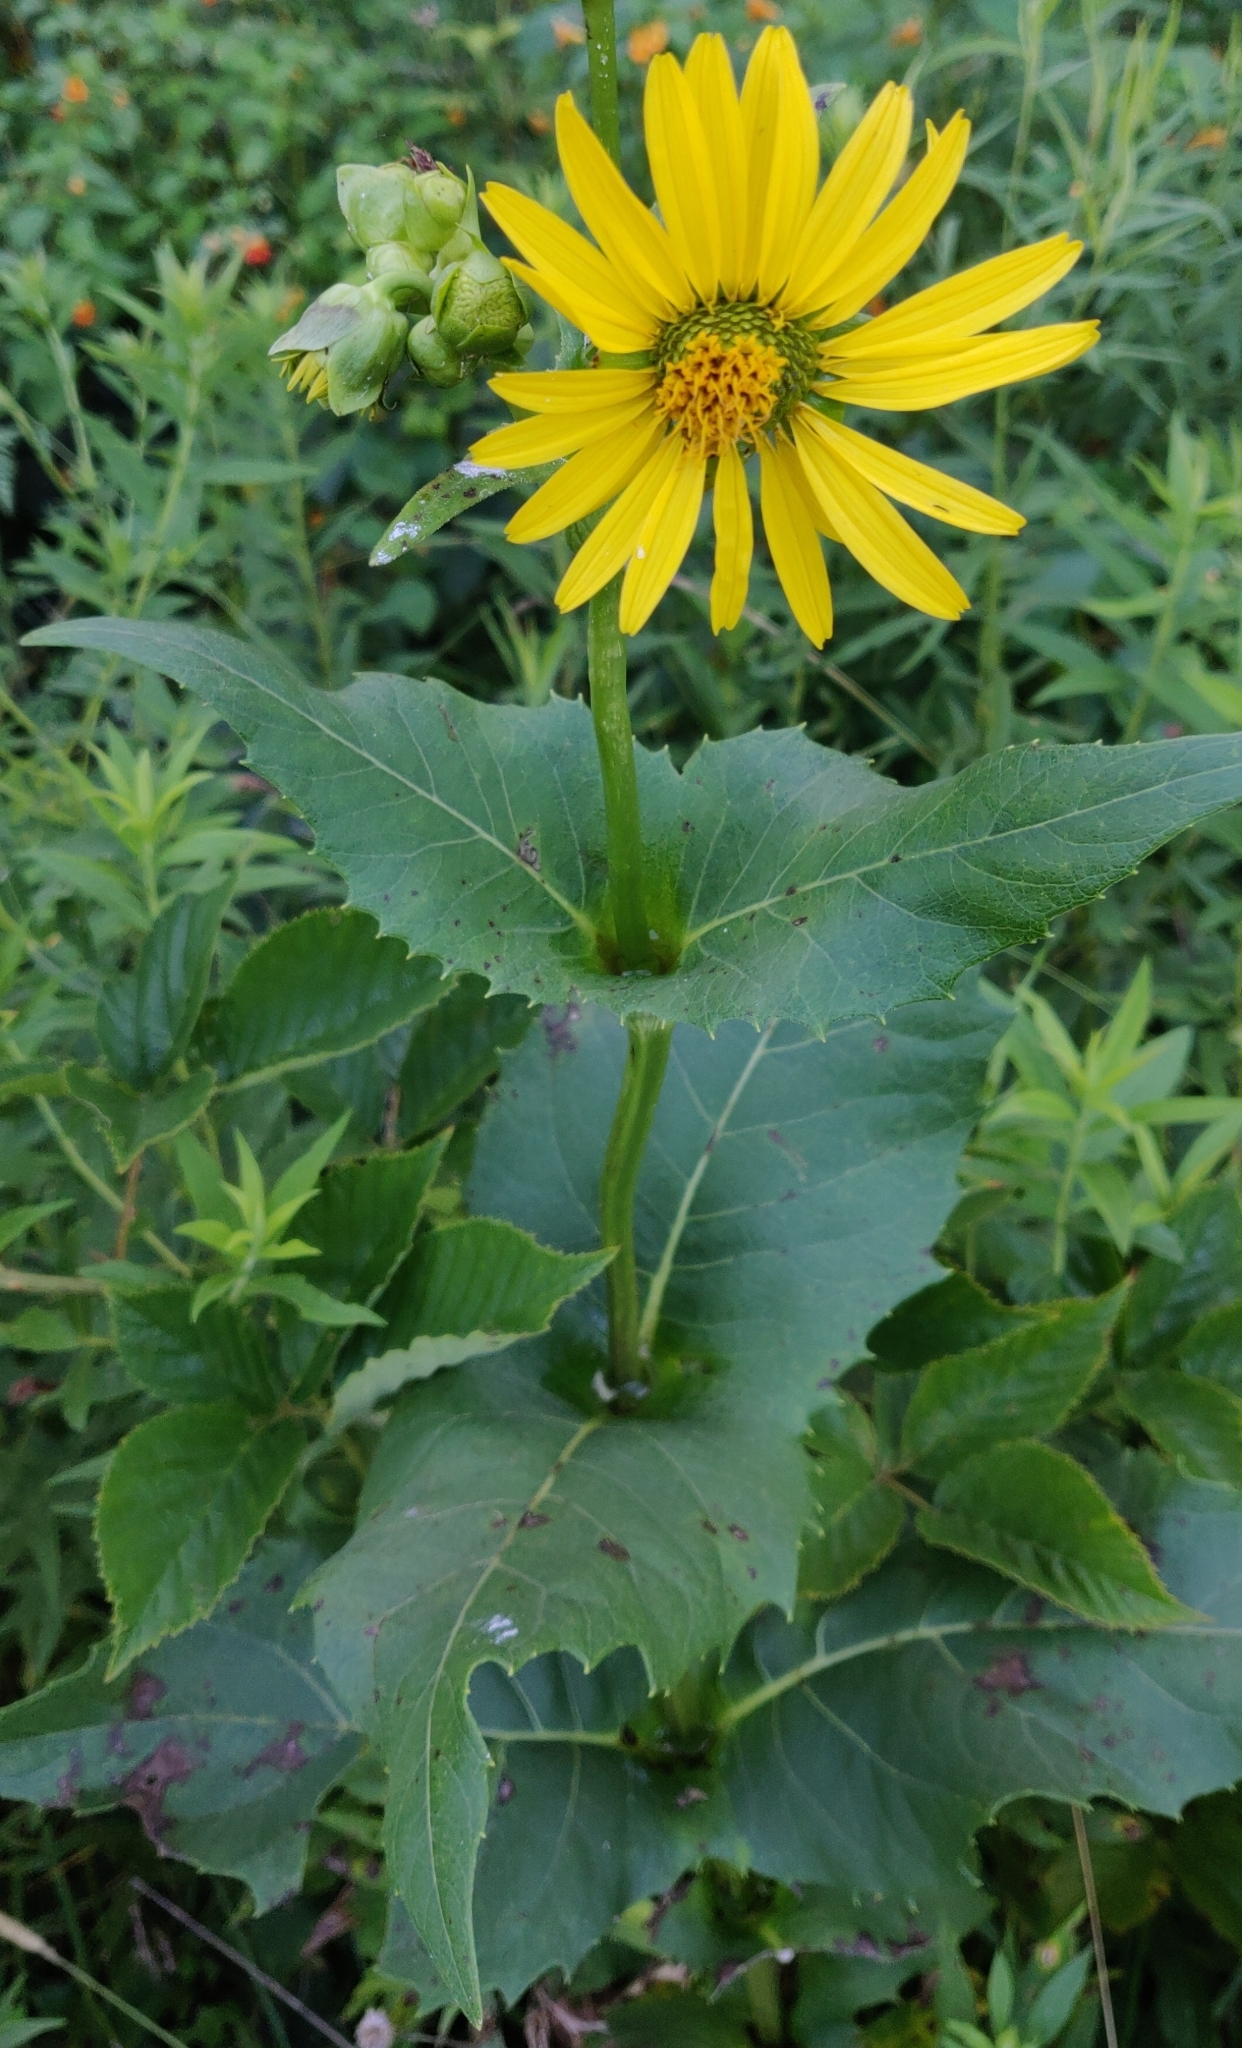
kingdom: Plantae
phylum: Tracheophyta
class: Magnoliopsida
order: Asterales
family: Asteraceae
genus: Silphium
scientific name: Silphium perfoliatum
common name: Cup-plant
